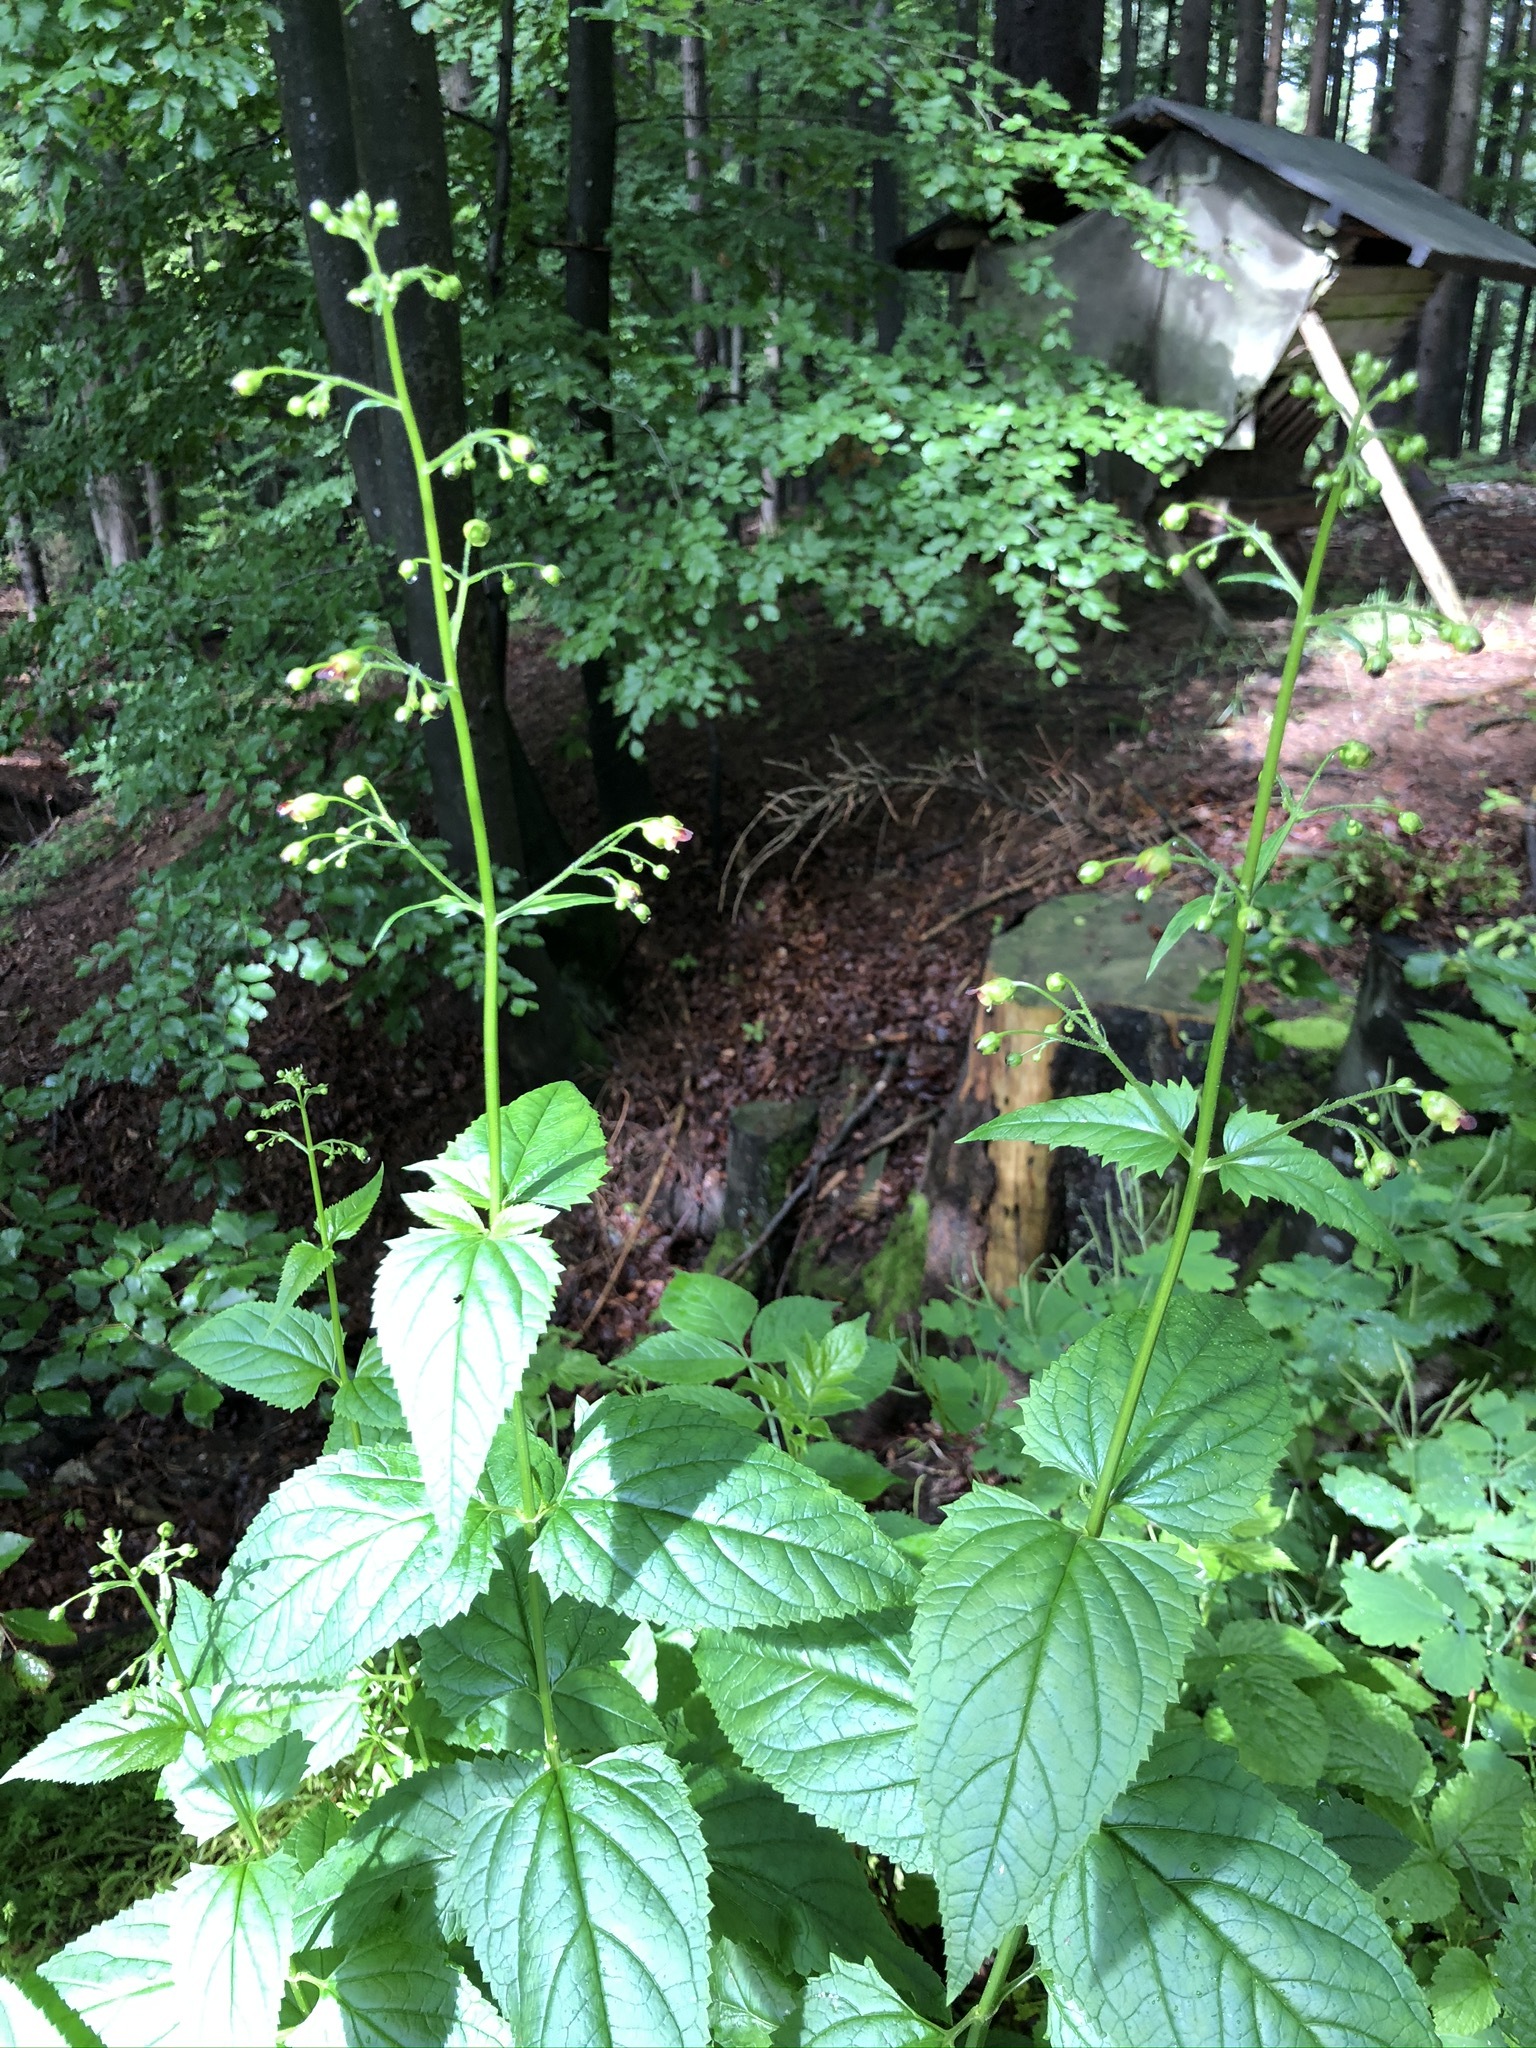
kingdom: Plantae
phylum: Tracheophyta
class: Magnoliopsida
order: Lamiales
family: Scrophulariaceae
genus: Scrophularia
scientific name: Scrophularia nodosa
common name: Common figwort
